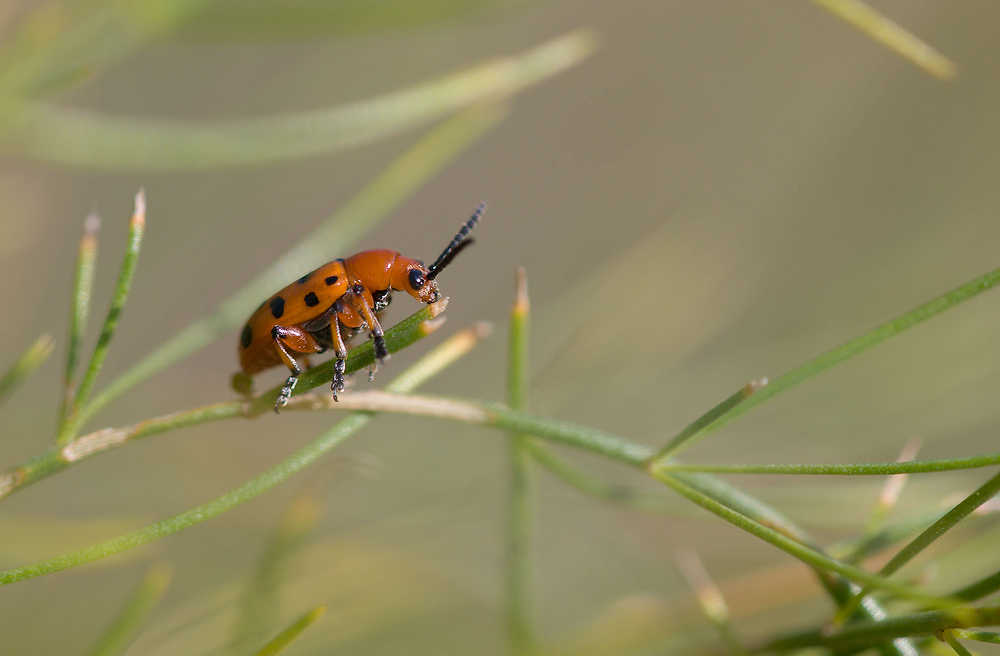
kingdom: Animalia
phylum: Arthropoda
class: Insecta
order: Coleoptera
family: Chrysomelidae
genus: Crioceris
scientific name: Crioceris duodecimpunctata
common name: Twelve-spotted asparagus beetle
